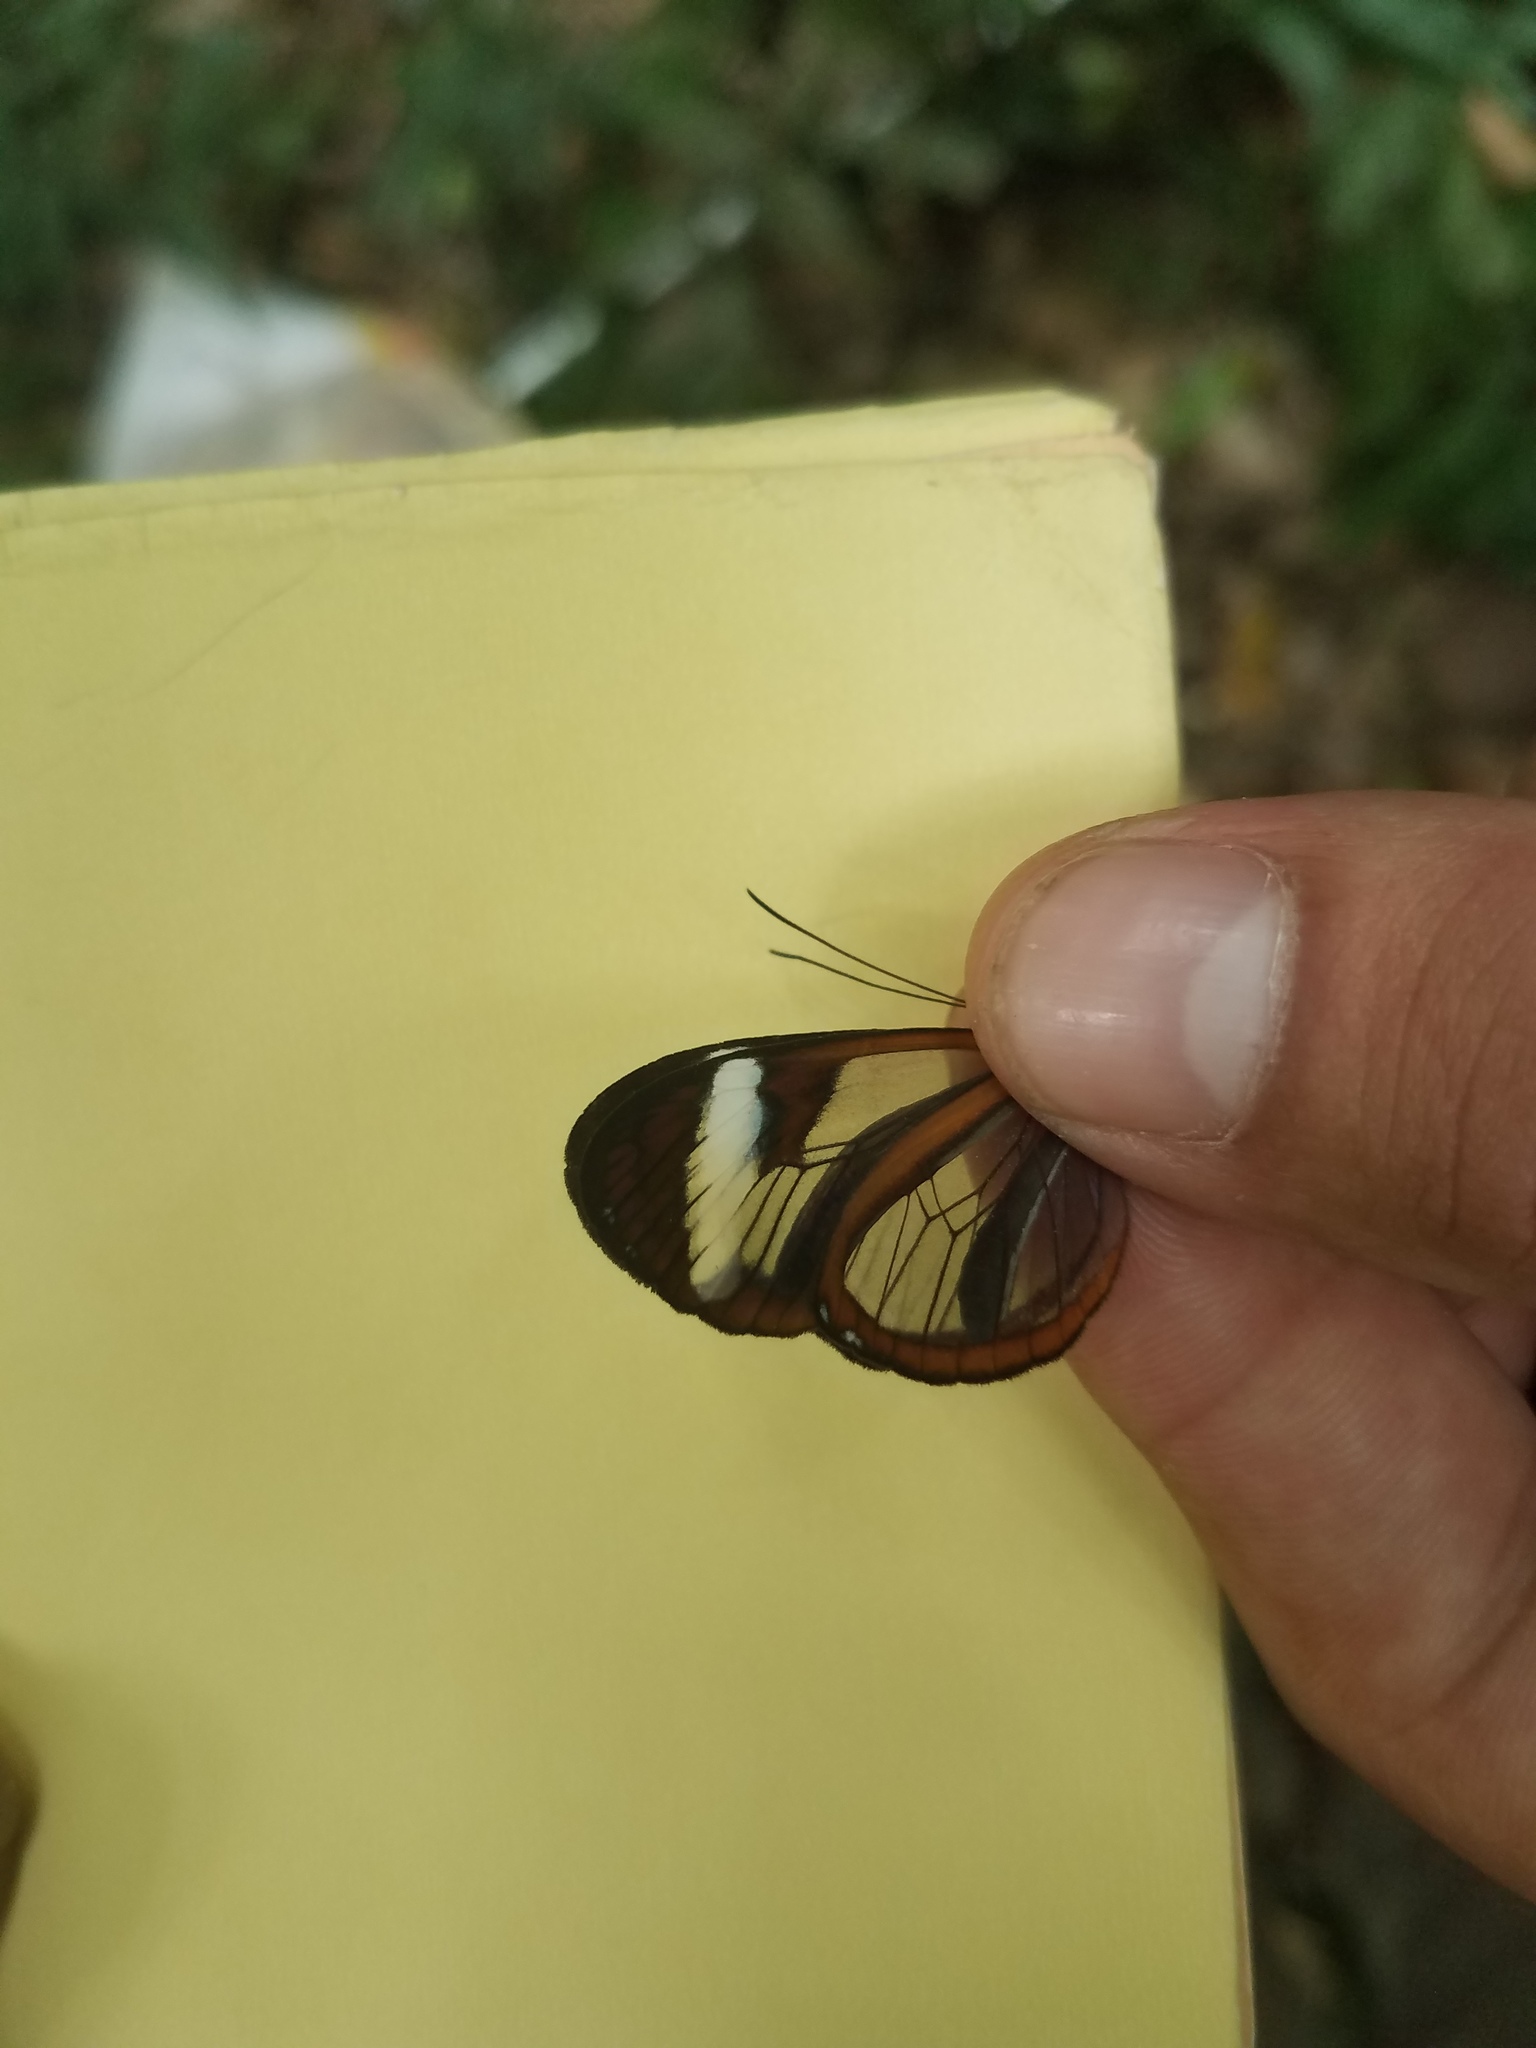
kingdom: Animalia
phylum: Arthropoda
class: Insecta
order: Lepidoptera
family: Nymphalidae
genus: Oleria
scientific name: Oleria paula
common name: Paula's clearwing
